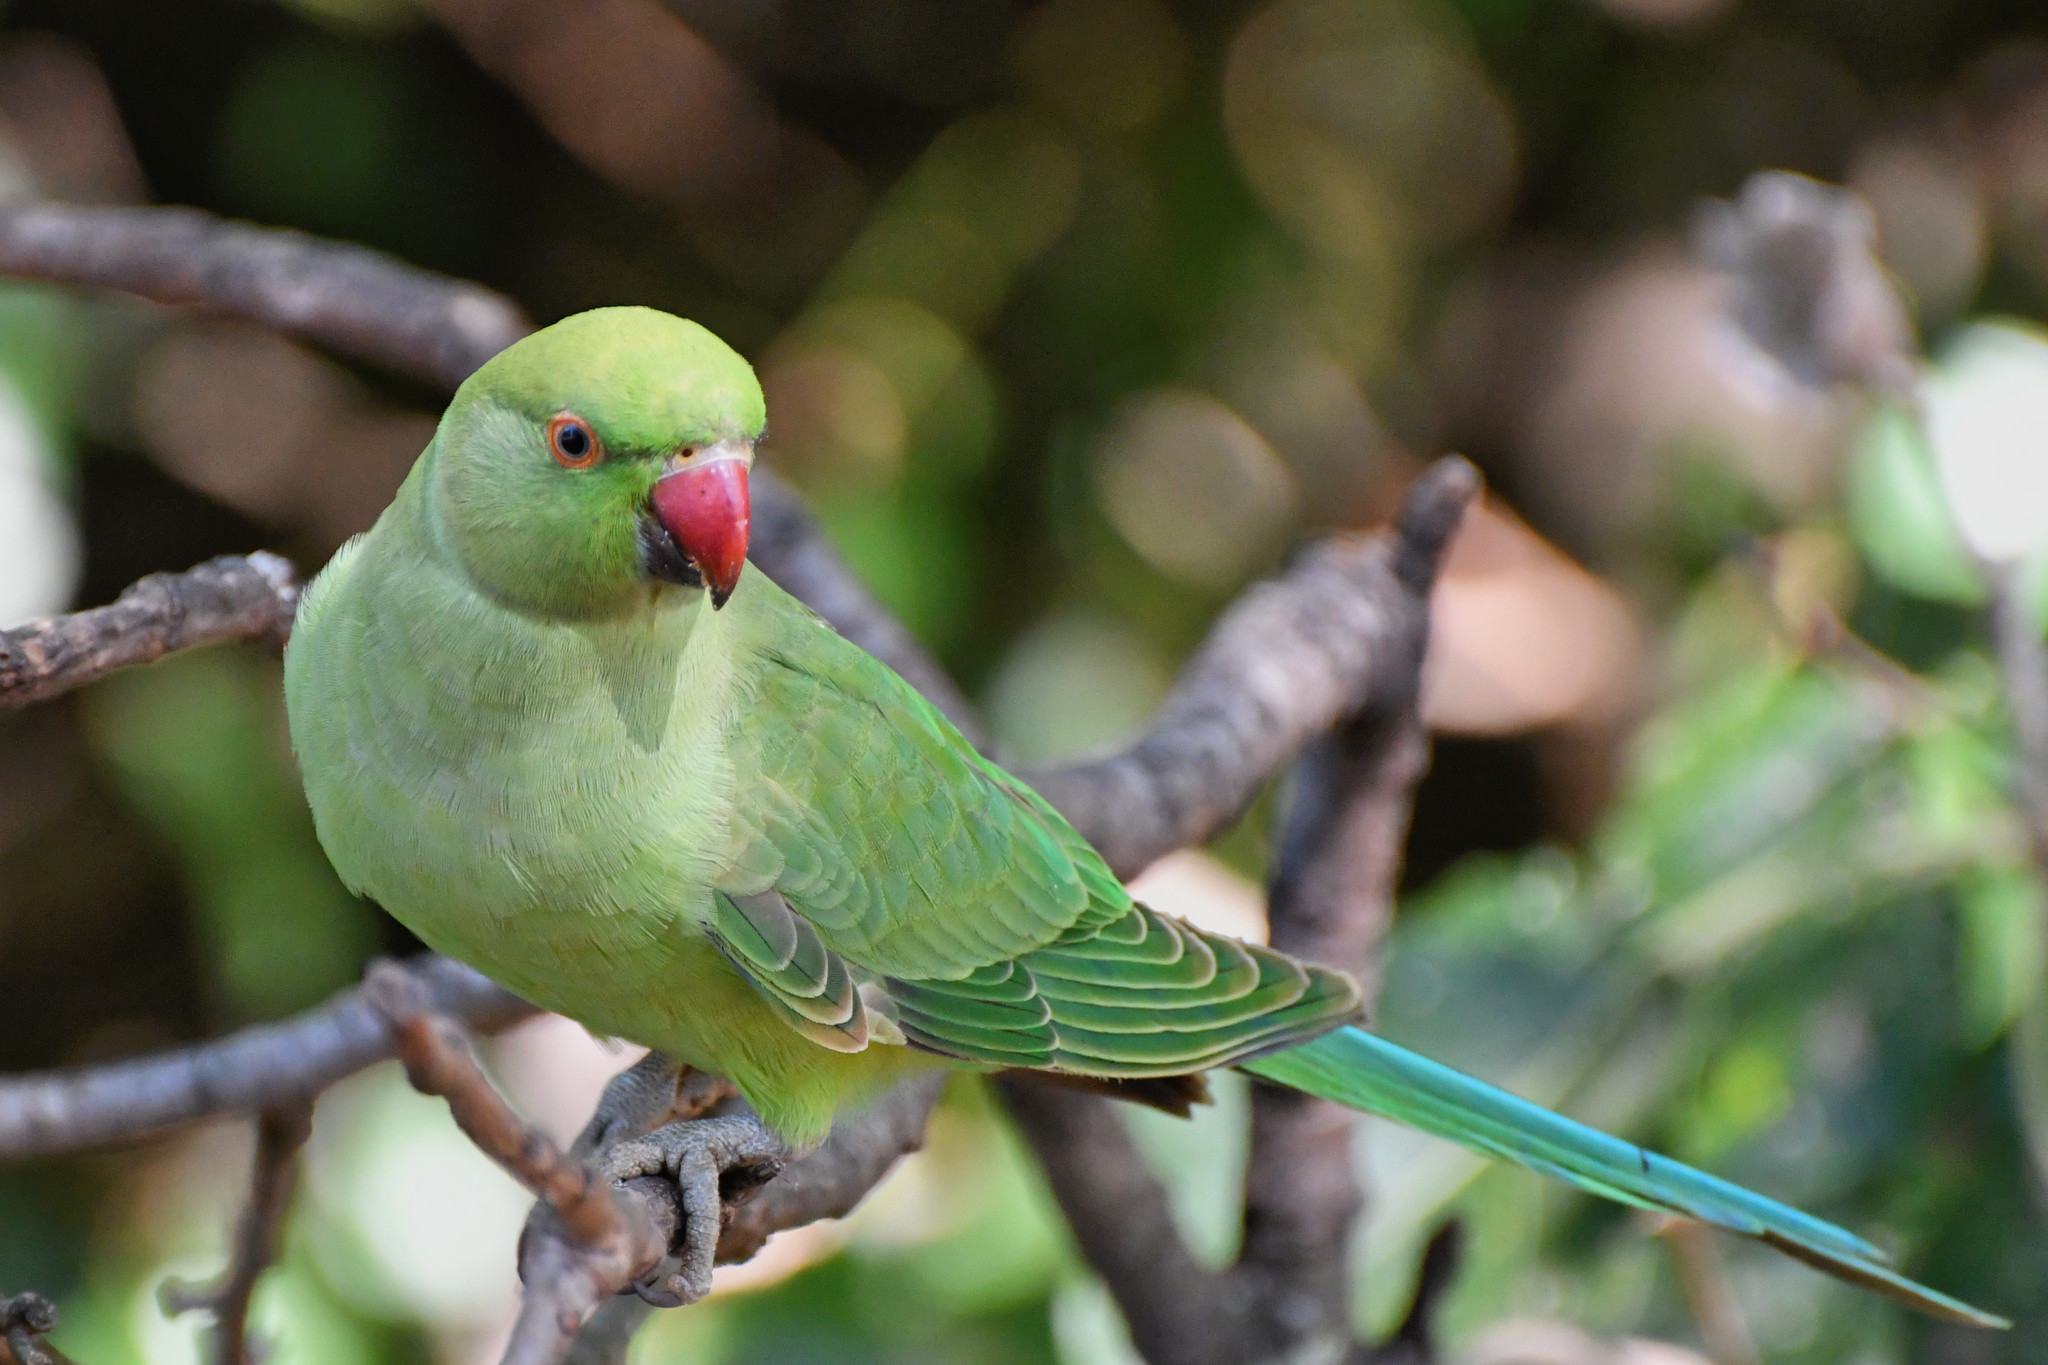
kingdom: Animalia
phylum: Chordata
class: Aves
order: Psittaciformes
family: Psittacidae
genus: Psittacula
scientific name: Psittacula krameri
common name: Rose-ringed parakeet
